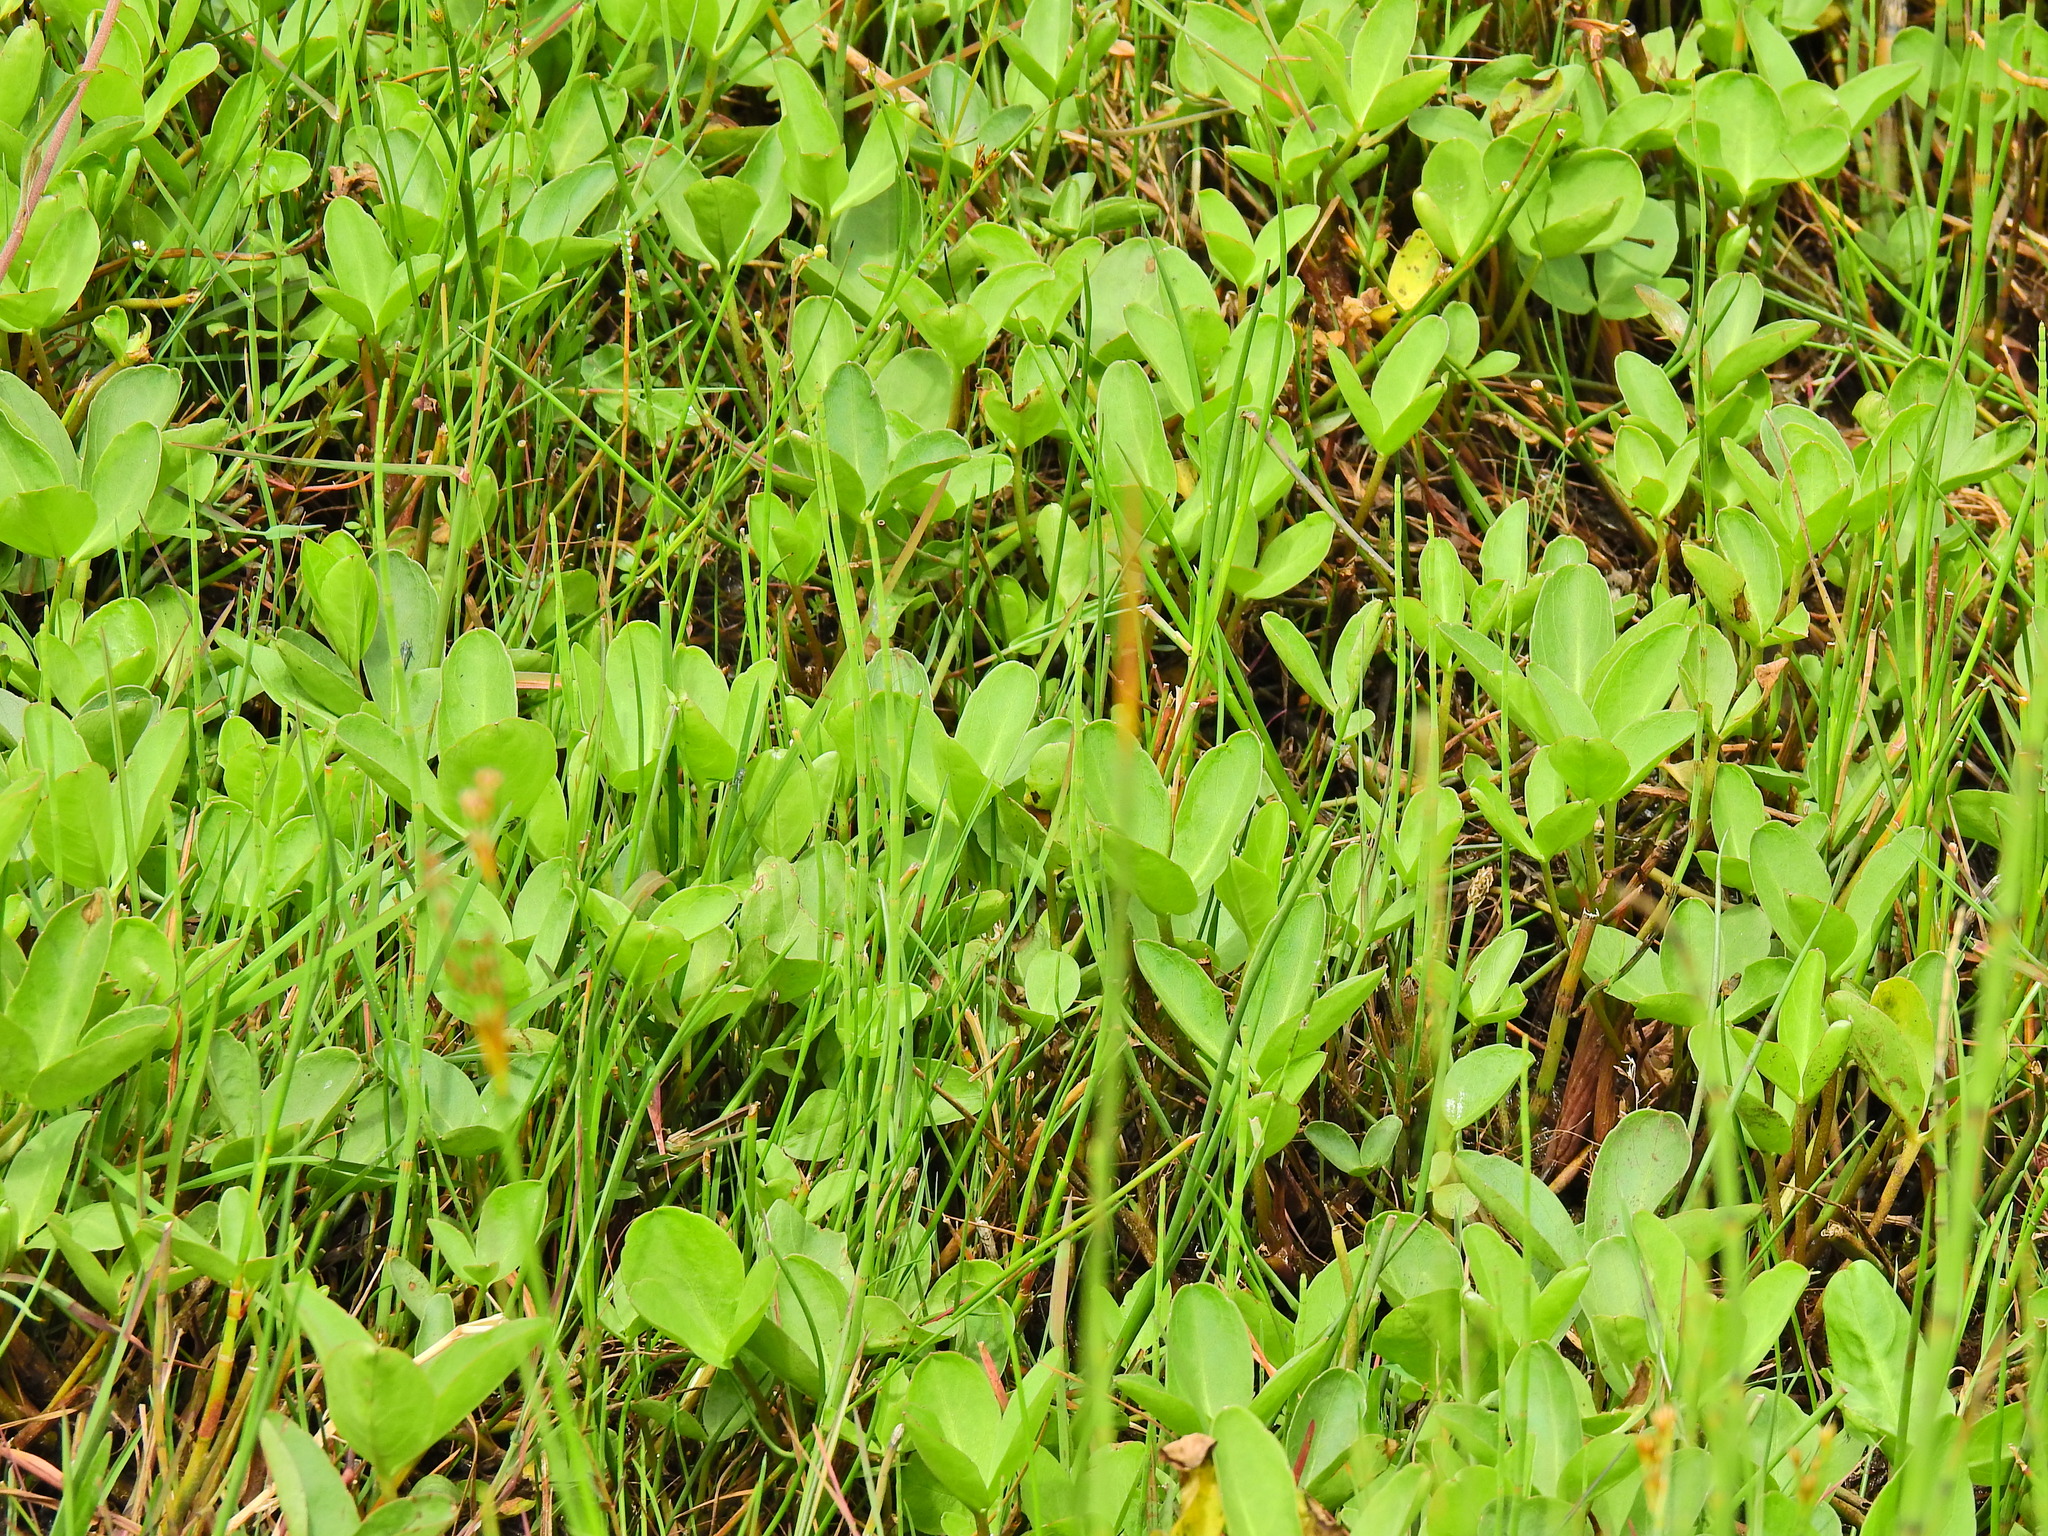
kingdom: Plantae
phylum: Tracheophyta
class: Magnoliopsida
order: Asterales
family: Menyanthaceae
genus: Menyanthes
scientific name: Menyanthes trifoliata
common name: Bogbean
